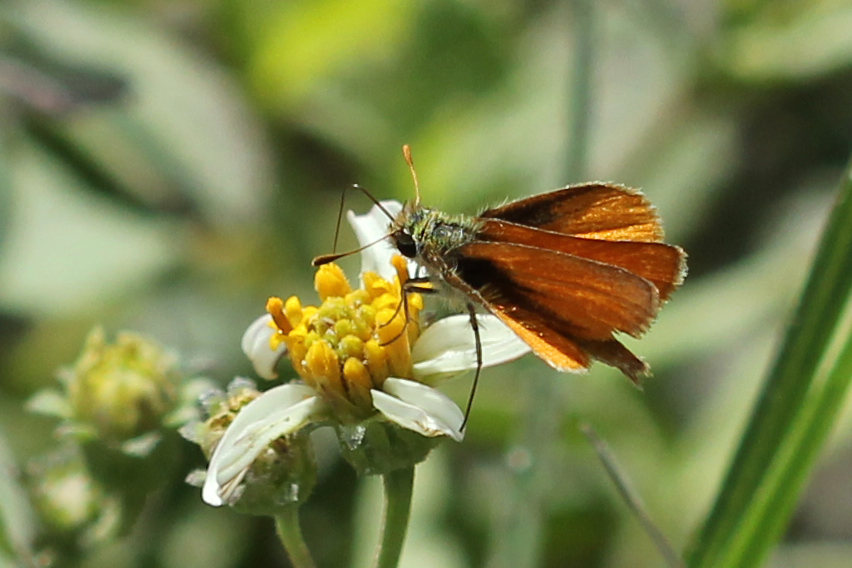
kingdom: Animalia
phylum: Arthropoda
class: Insecta
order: Lepidoptera
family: Hesperiidae
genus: Copaeodes
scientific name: Copaeodes minima
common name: Southern skipperling
